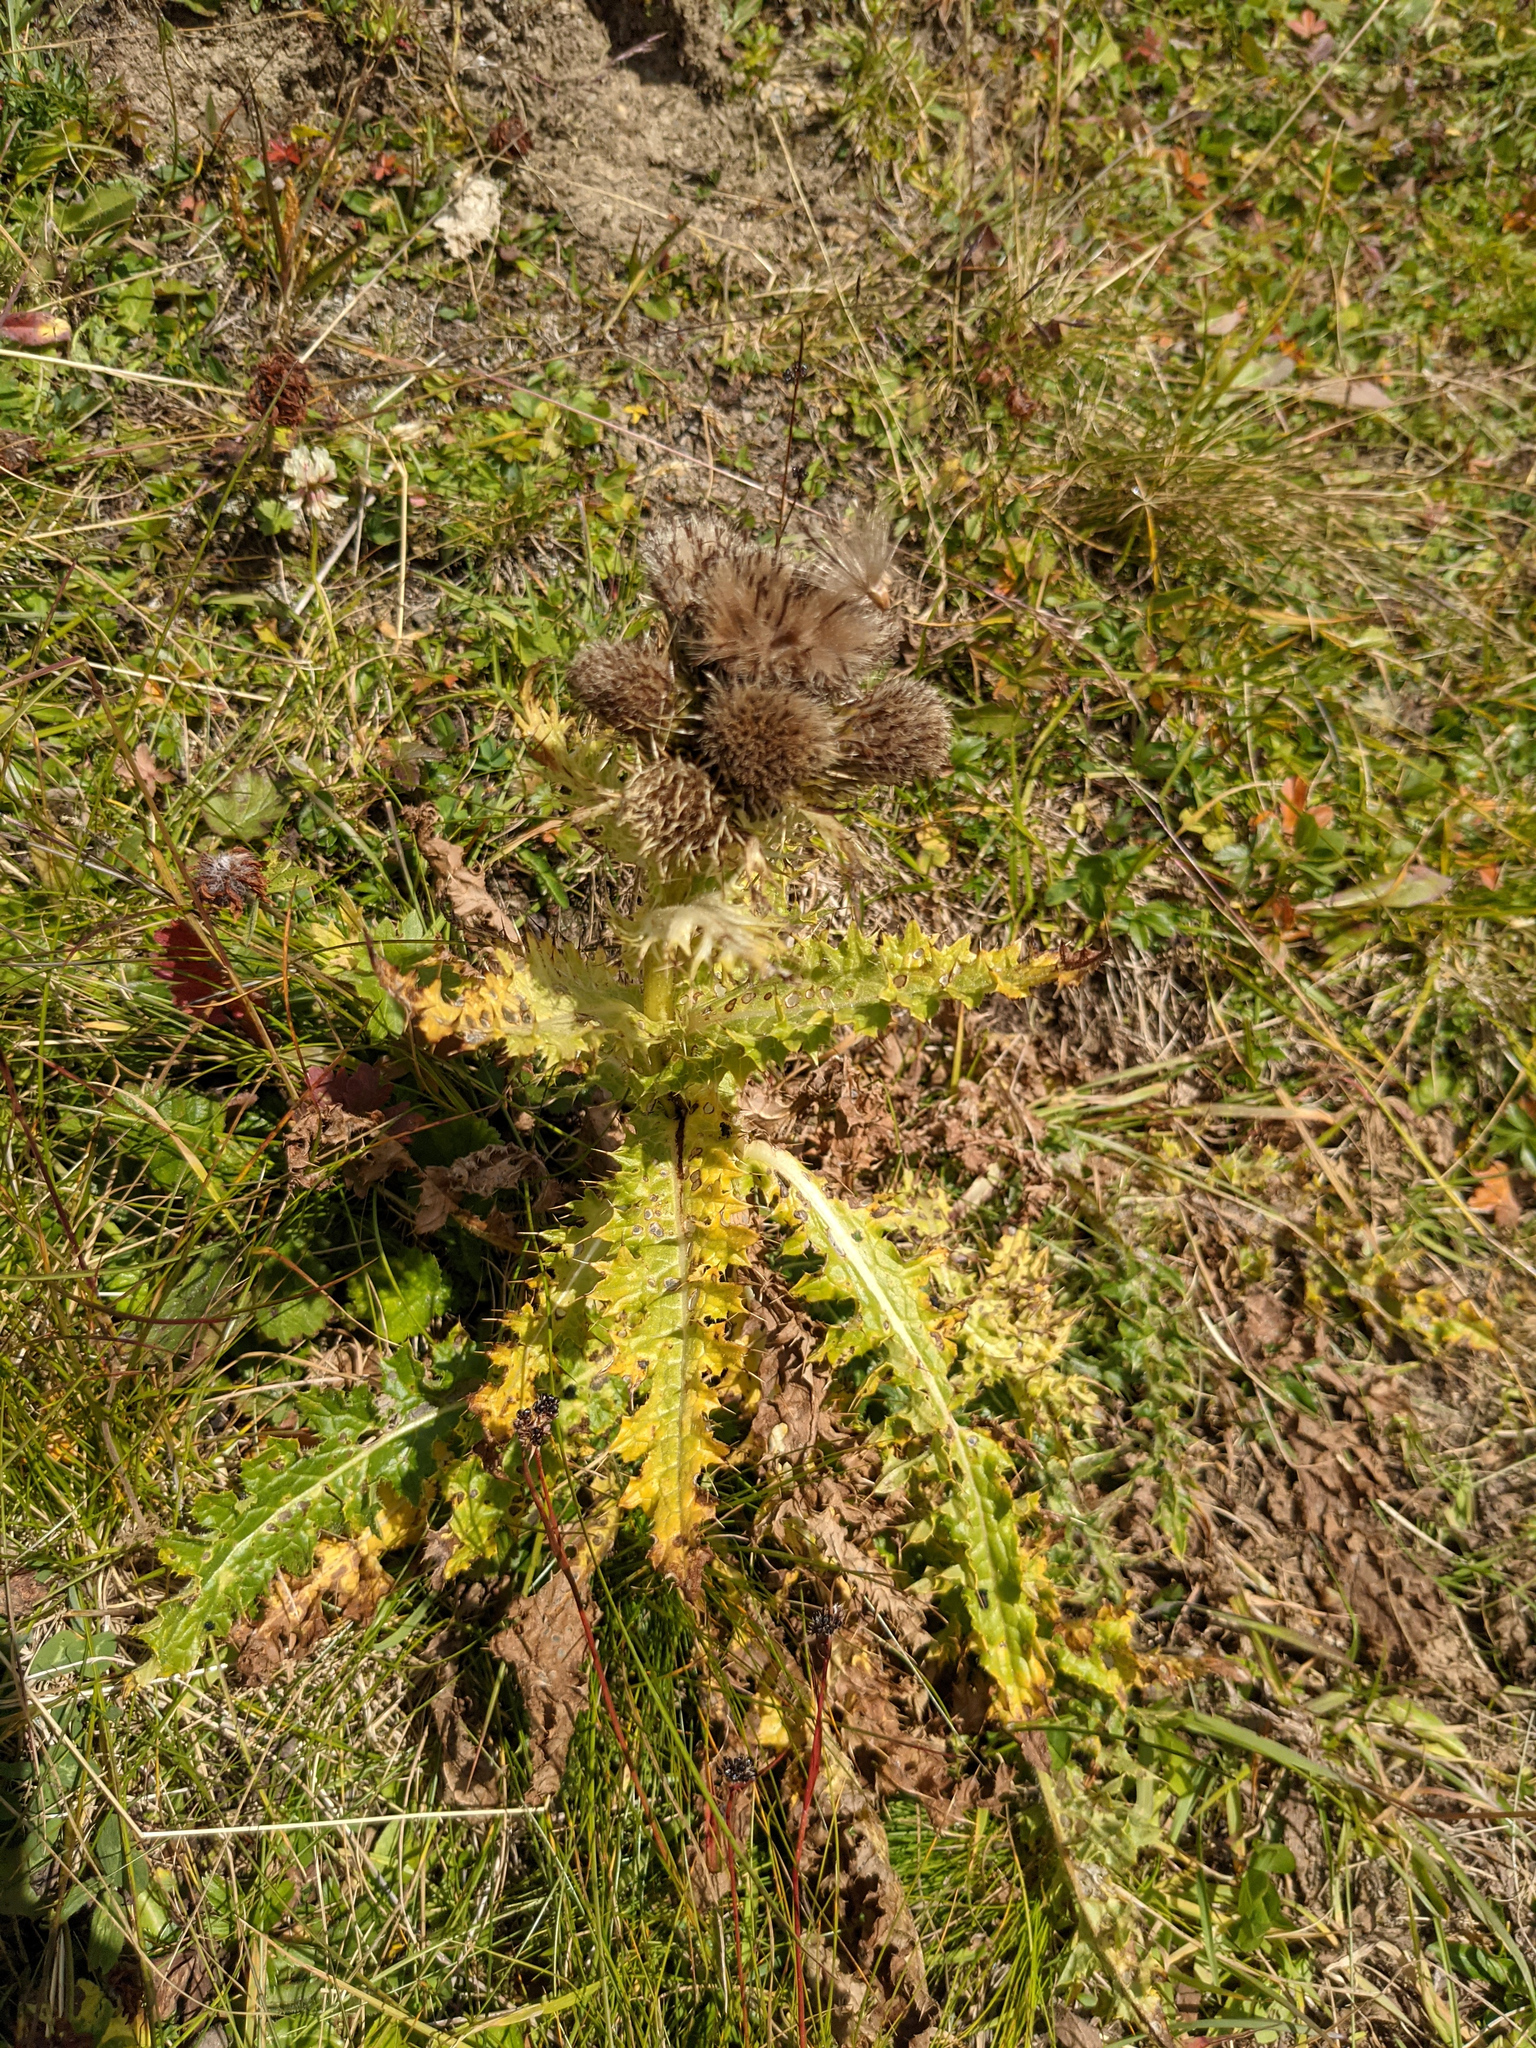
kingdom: Plantae
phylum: Tracheophyta
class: Magnoliopsida
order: Asterales
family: Asteraceae
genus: Cirsium
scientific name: Cirsium spinosissimum
